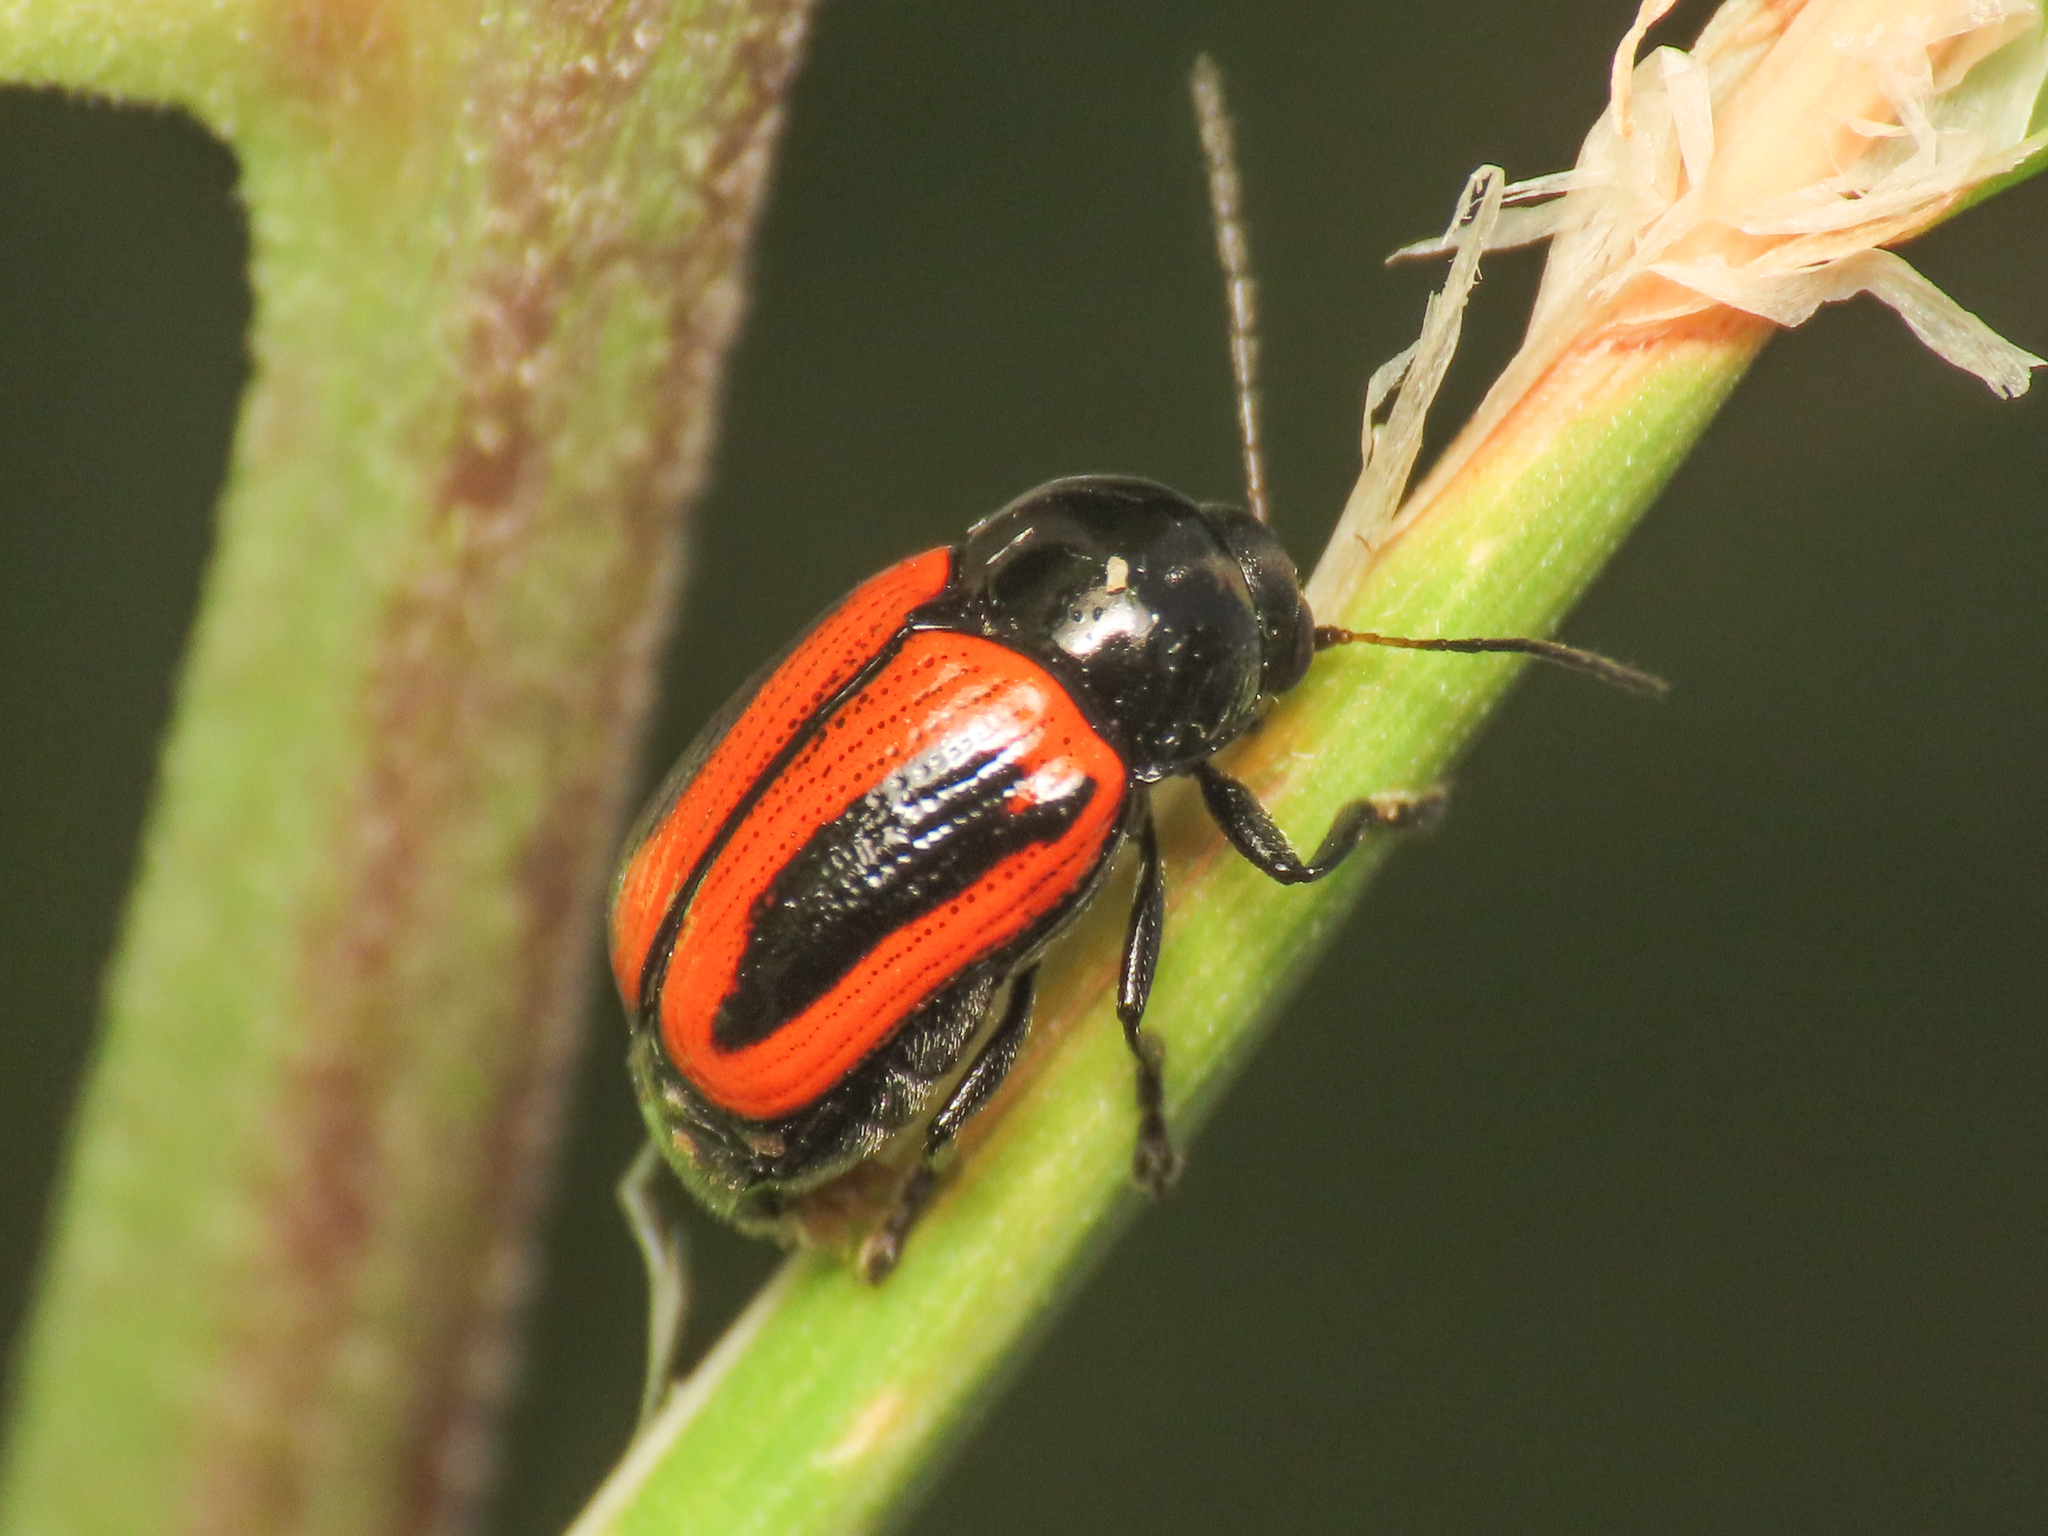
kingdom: Animalia
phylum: Arthropoda
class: Insecta
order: Coleoptera
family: Chrysomelidae
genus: Chiridopsis
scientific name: Chiridopsis bipunctata
